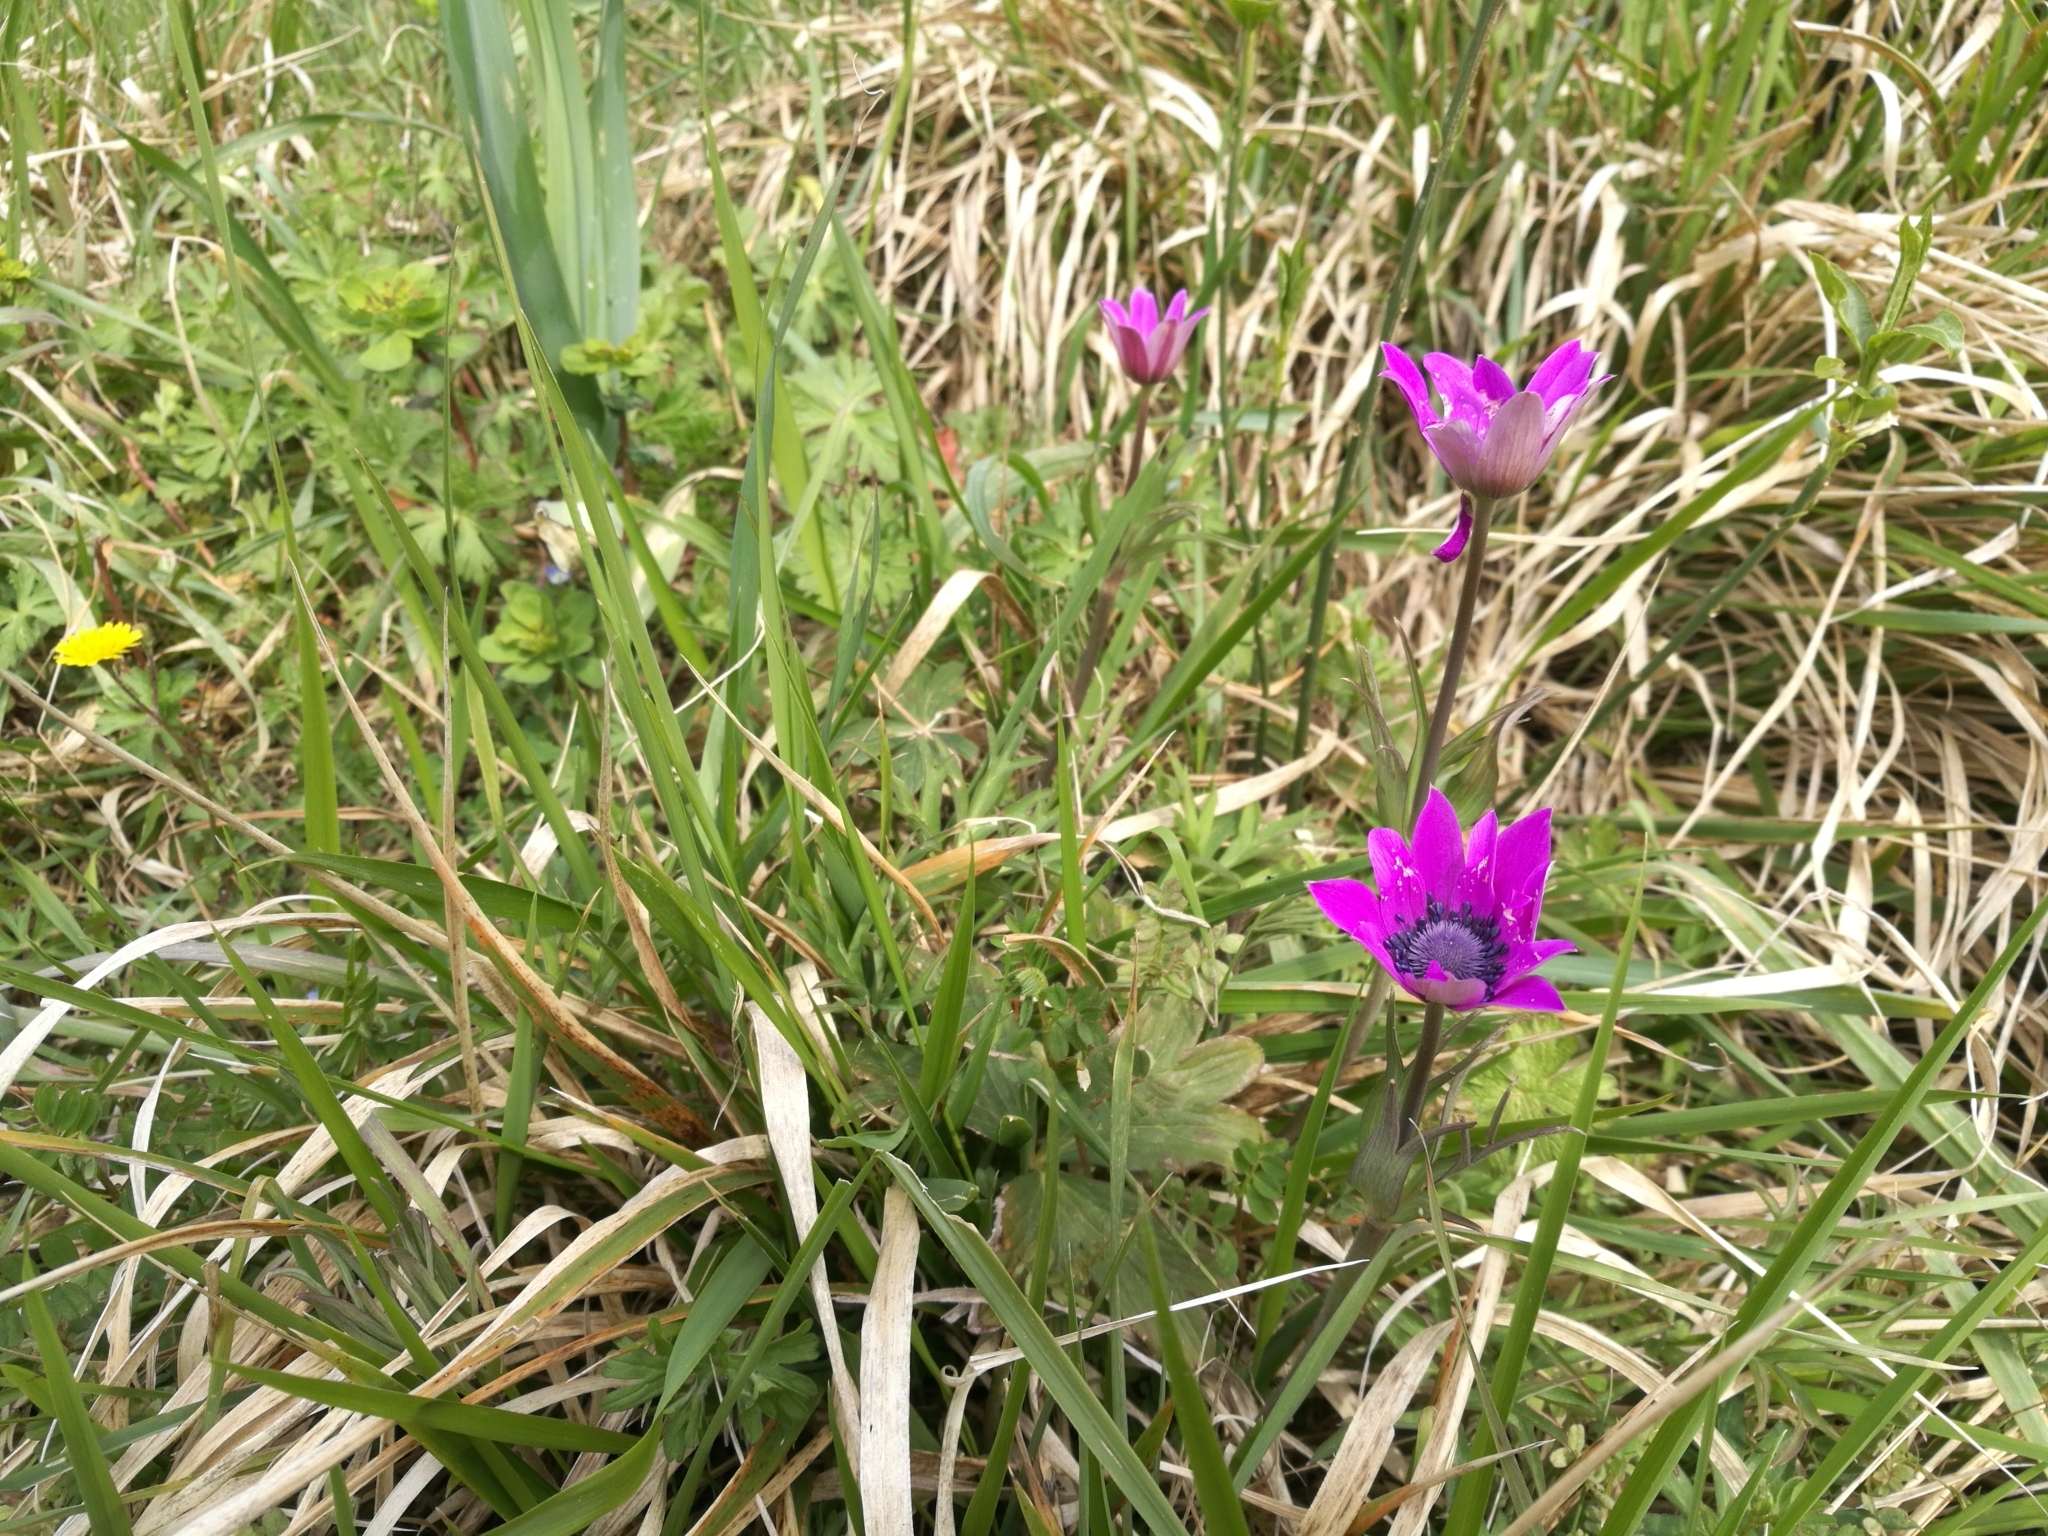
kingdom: Plantae
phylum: Tracheophyta
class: Magnoliopsida
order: Ranunculales
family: Ranunculaceae
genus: Anemone
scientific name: Anemone hortensis
